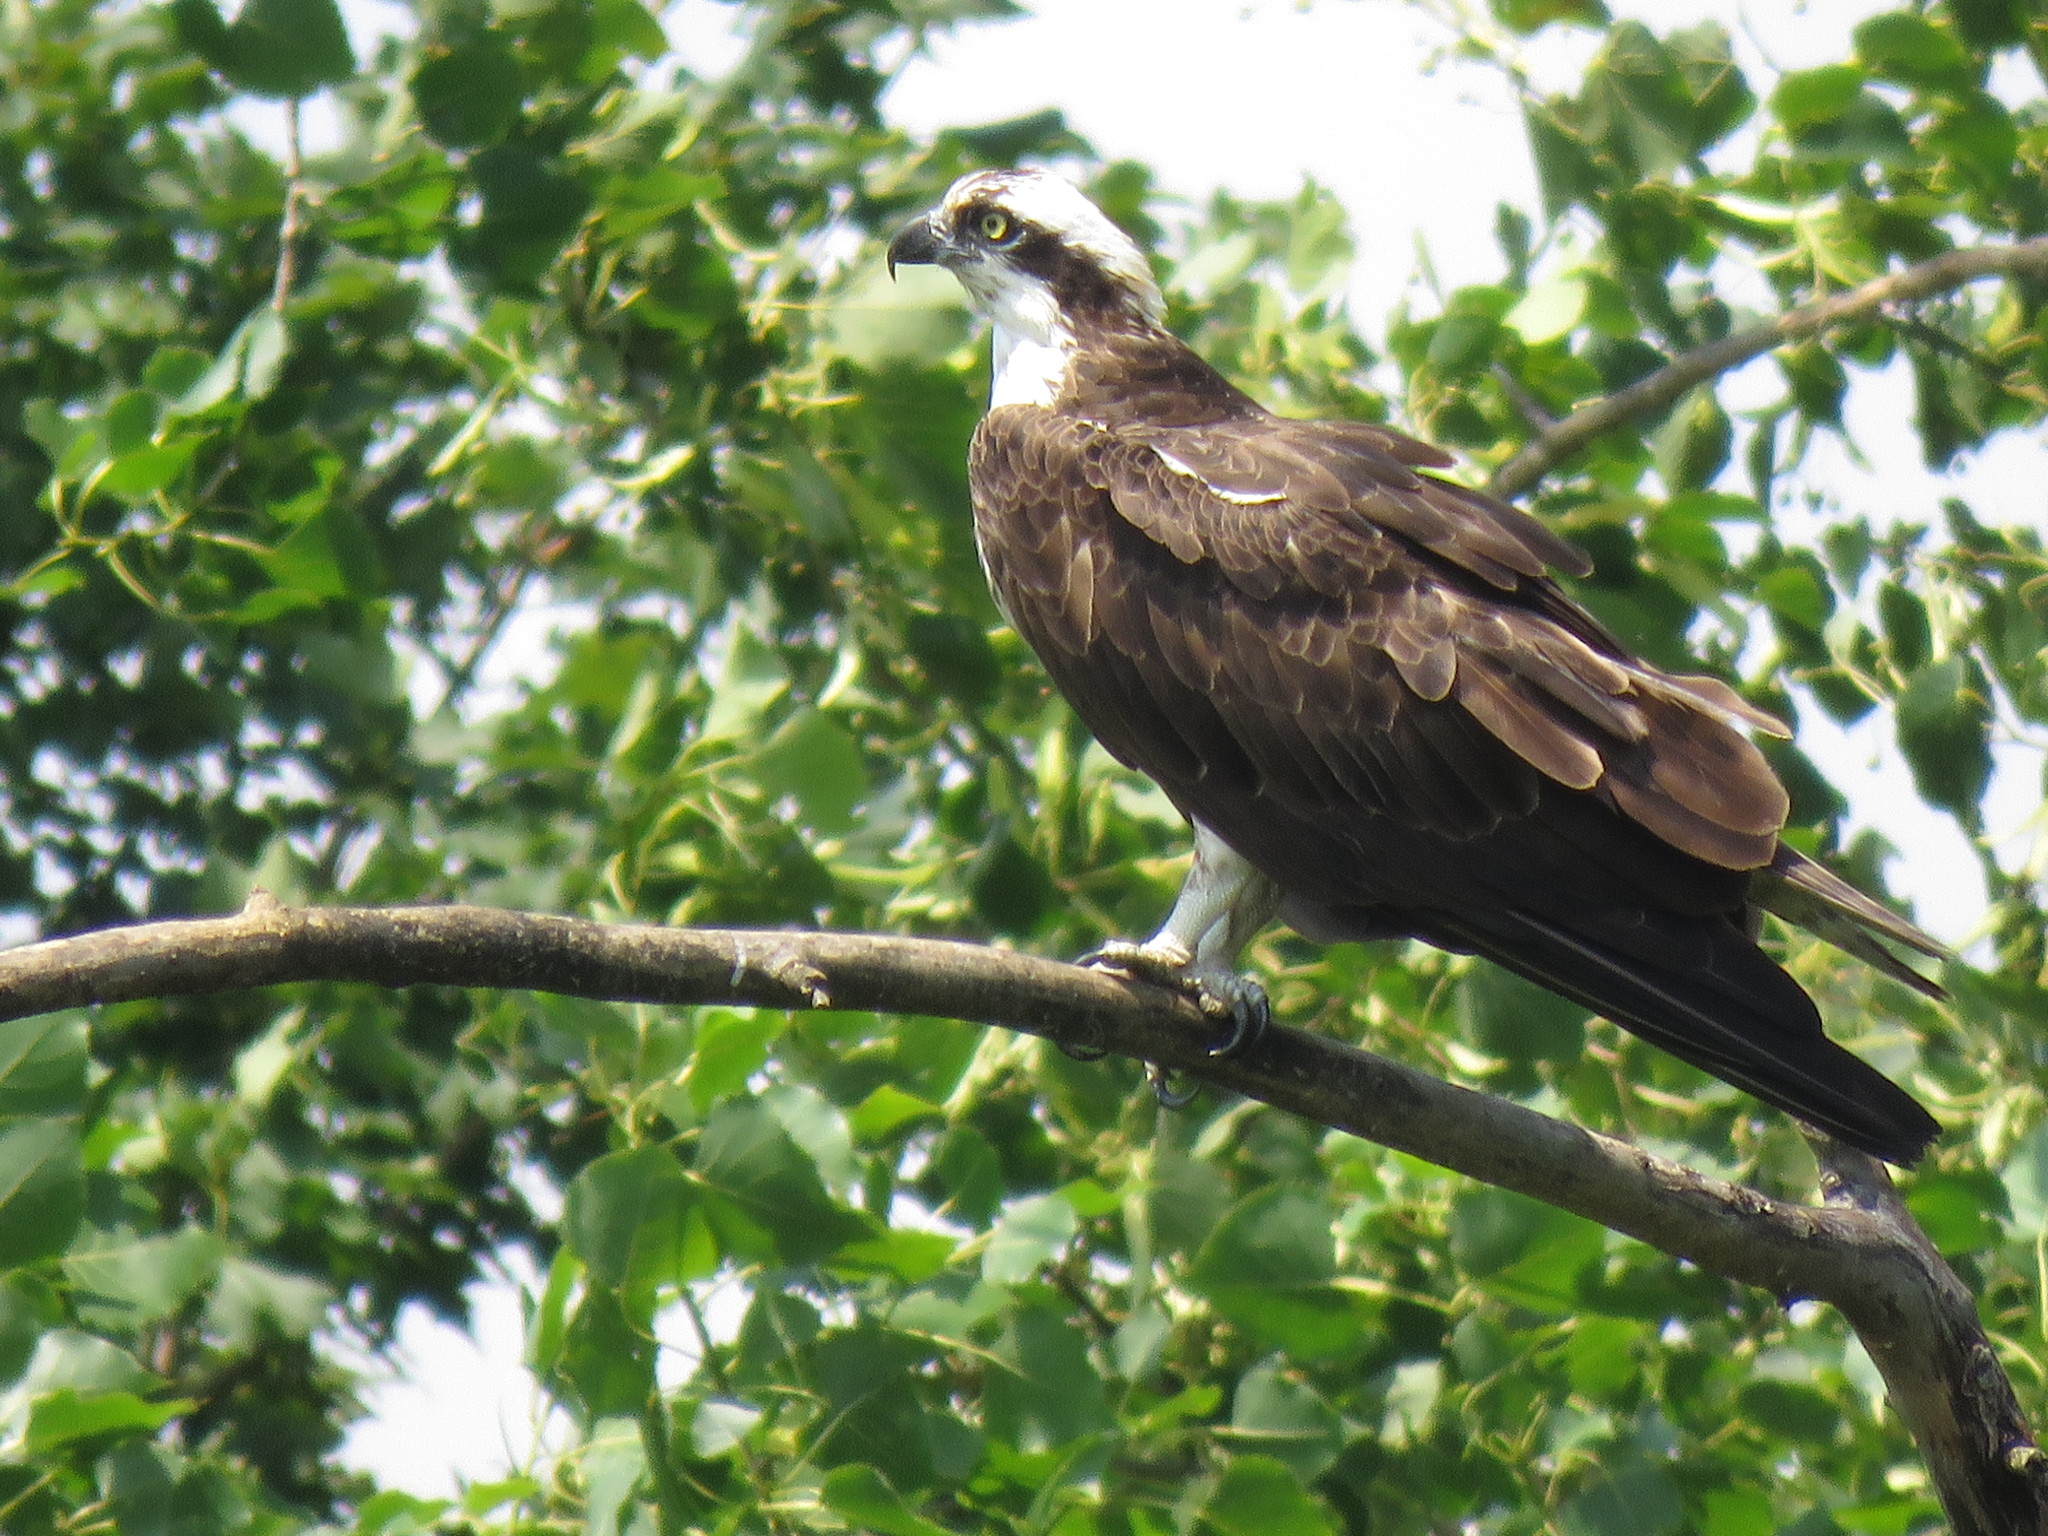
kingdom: Animalia
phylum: Chordata
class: Aves
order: Accipitriformes
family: Pandionidae
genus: Pandion
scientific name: Pandion haliaetus
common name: Osprey
